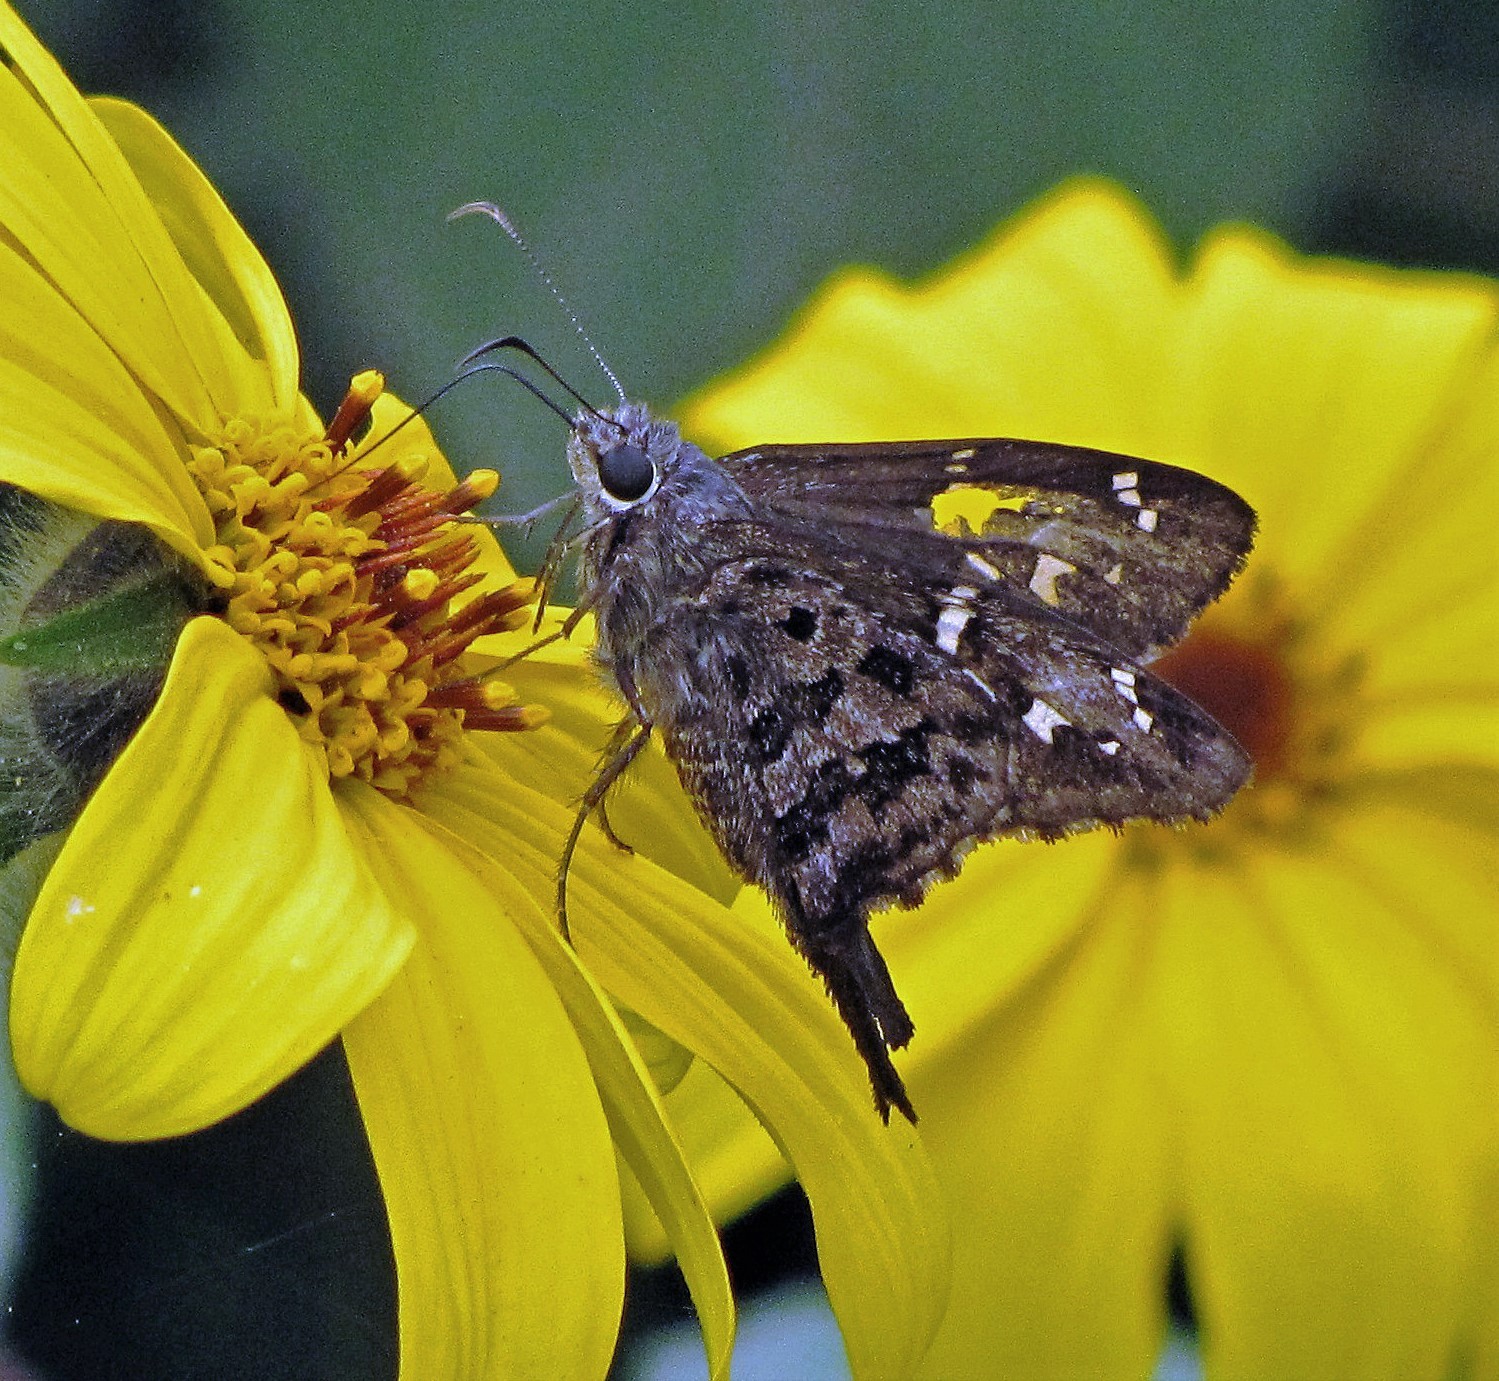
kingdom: Animalia
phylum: Arthropoda
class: Insecta
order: Lepidoptera
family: Hesperiidae
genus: Thorybes
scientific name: Thorybes
